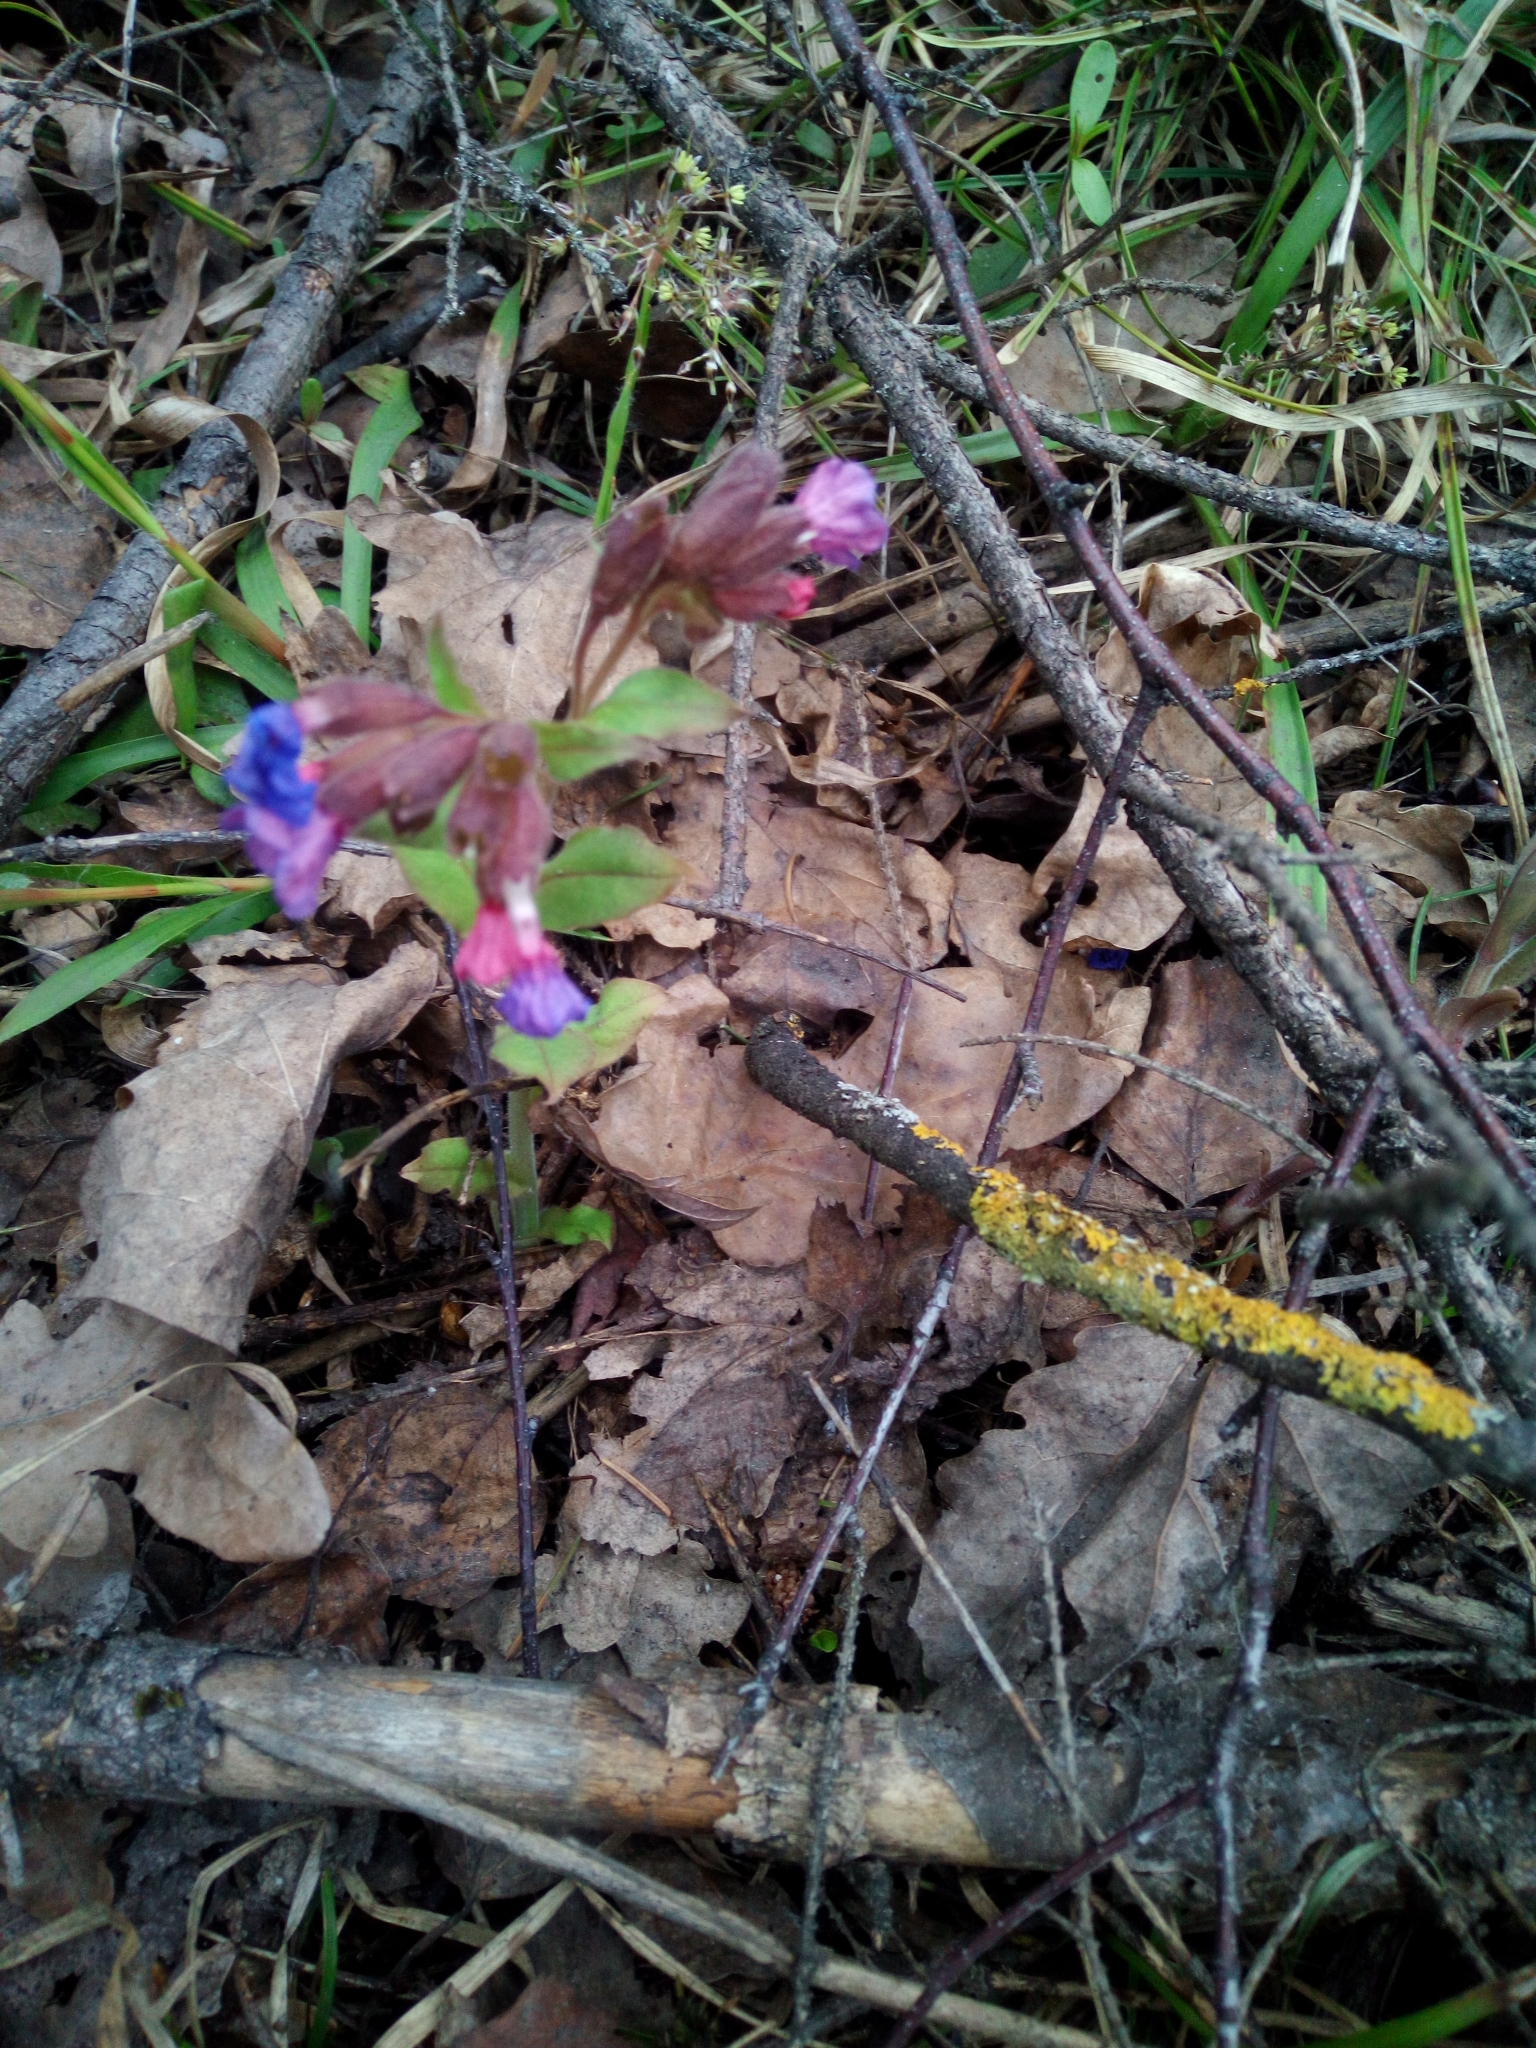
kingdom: Plantae
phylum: Tracheophyta
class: Magnoliopsida
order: Boraginales
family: Boraginaceae
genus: Pulmonaria
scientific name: Pulmonaria obscura
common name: Suffolk lungwort
